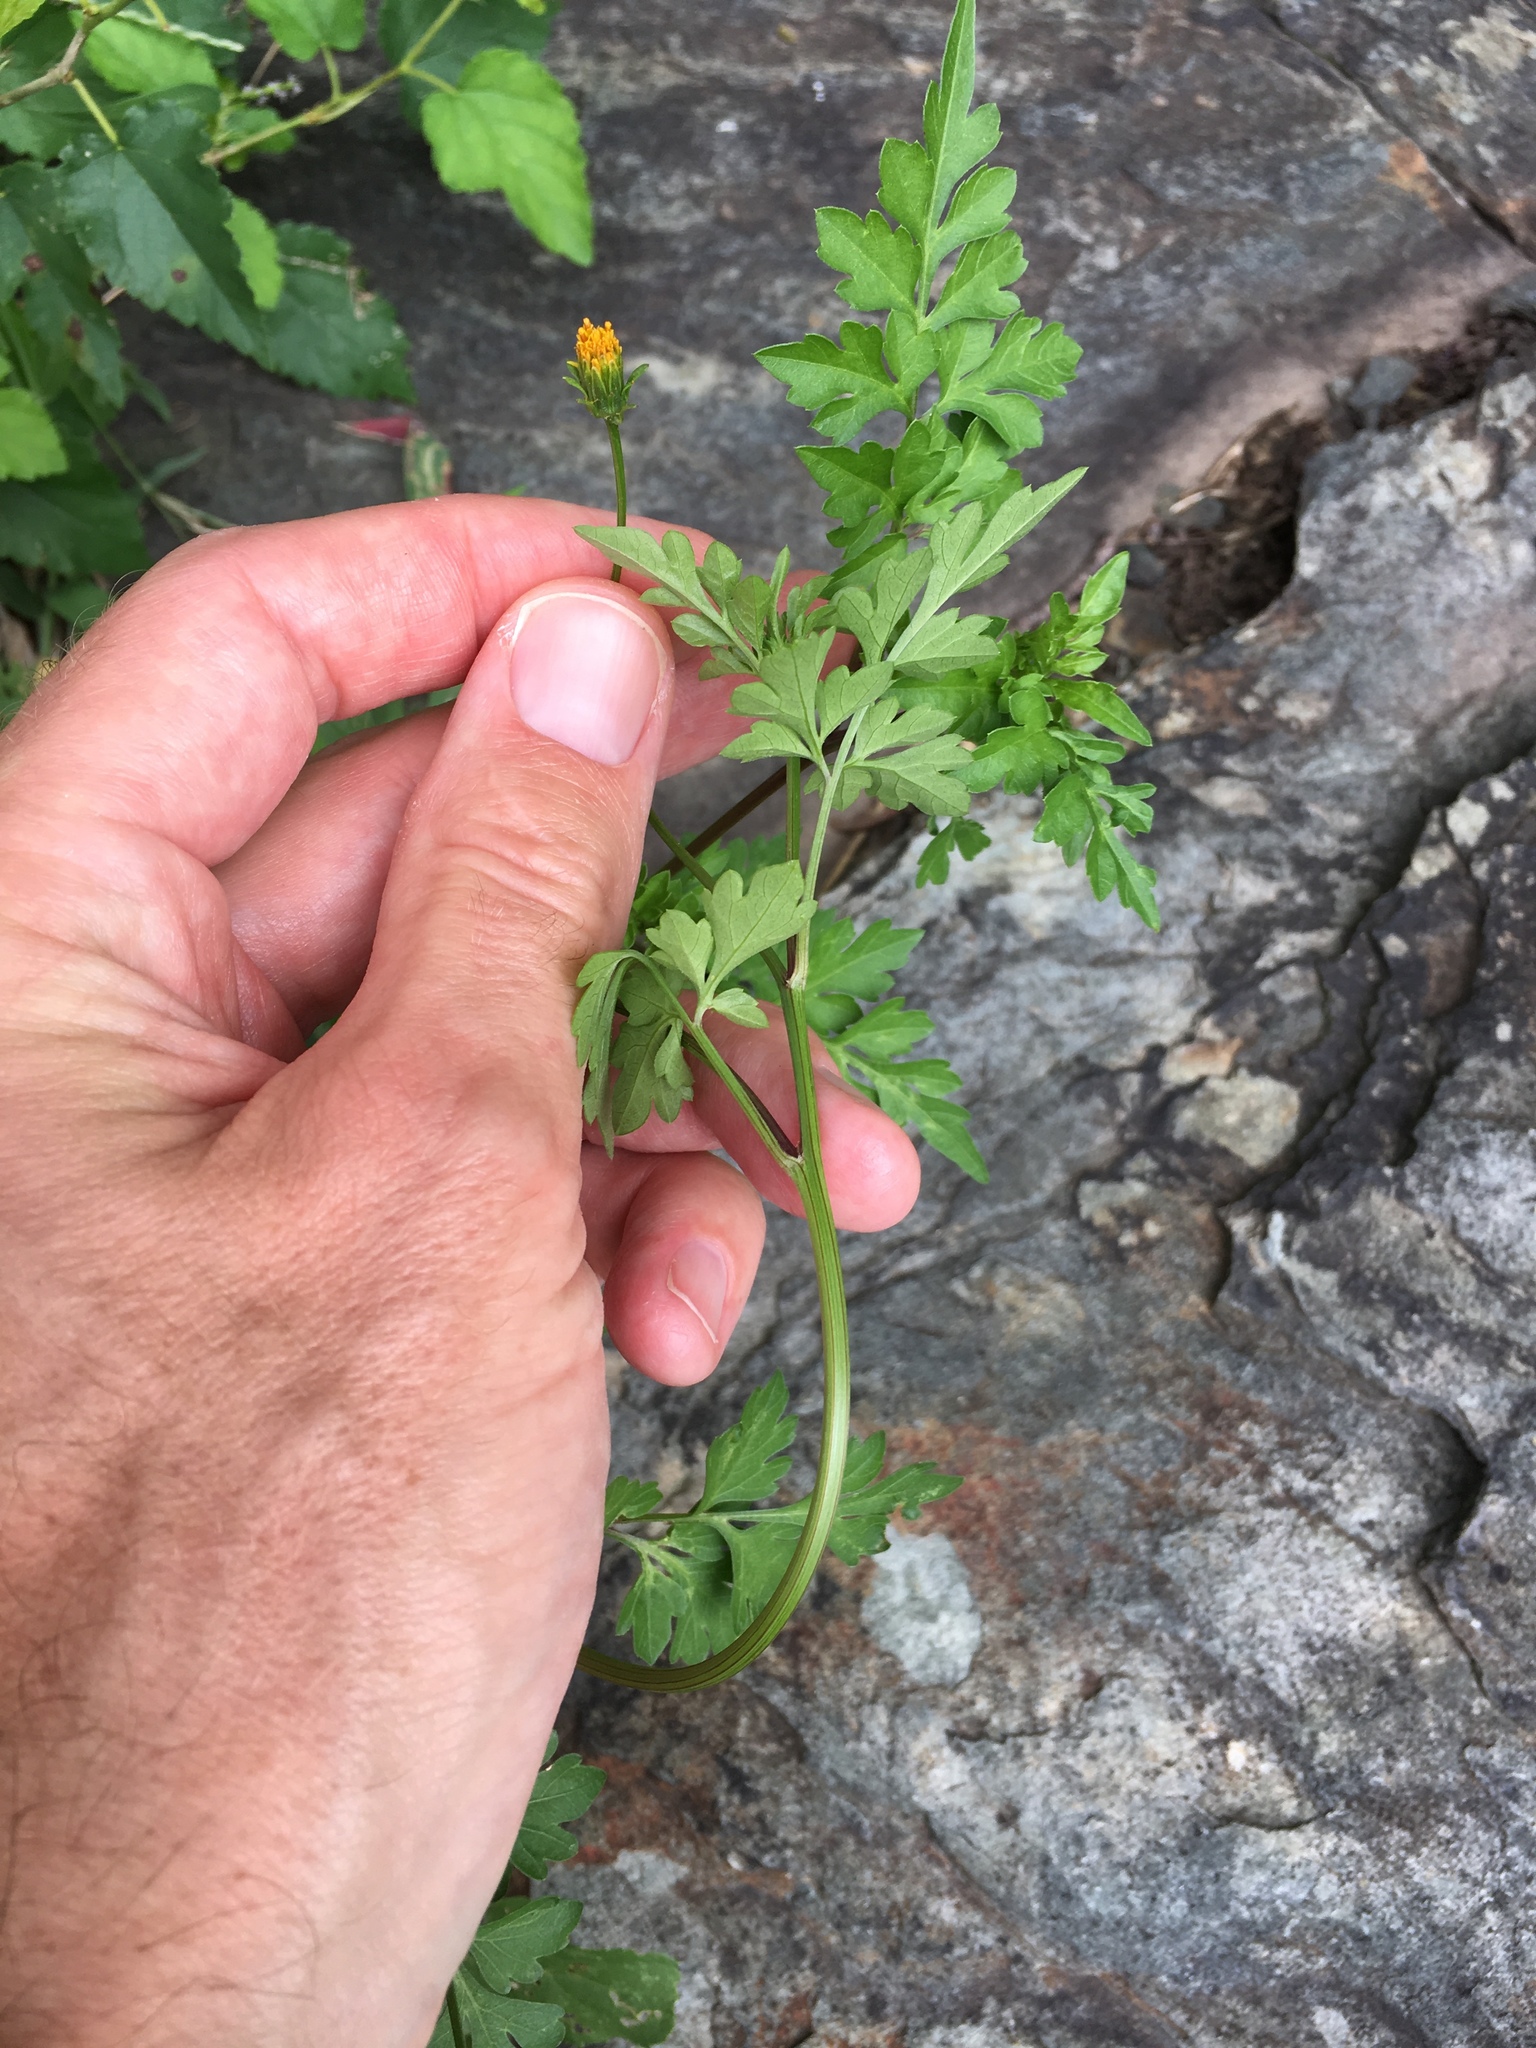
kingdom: Plantae
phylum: Tracheophyta
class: Magnoliopsida
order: Asterales
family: Asteraceae
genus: Bidens
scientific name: Bidens bipinnata
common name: Spanish-needles
